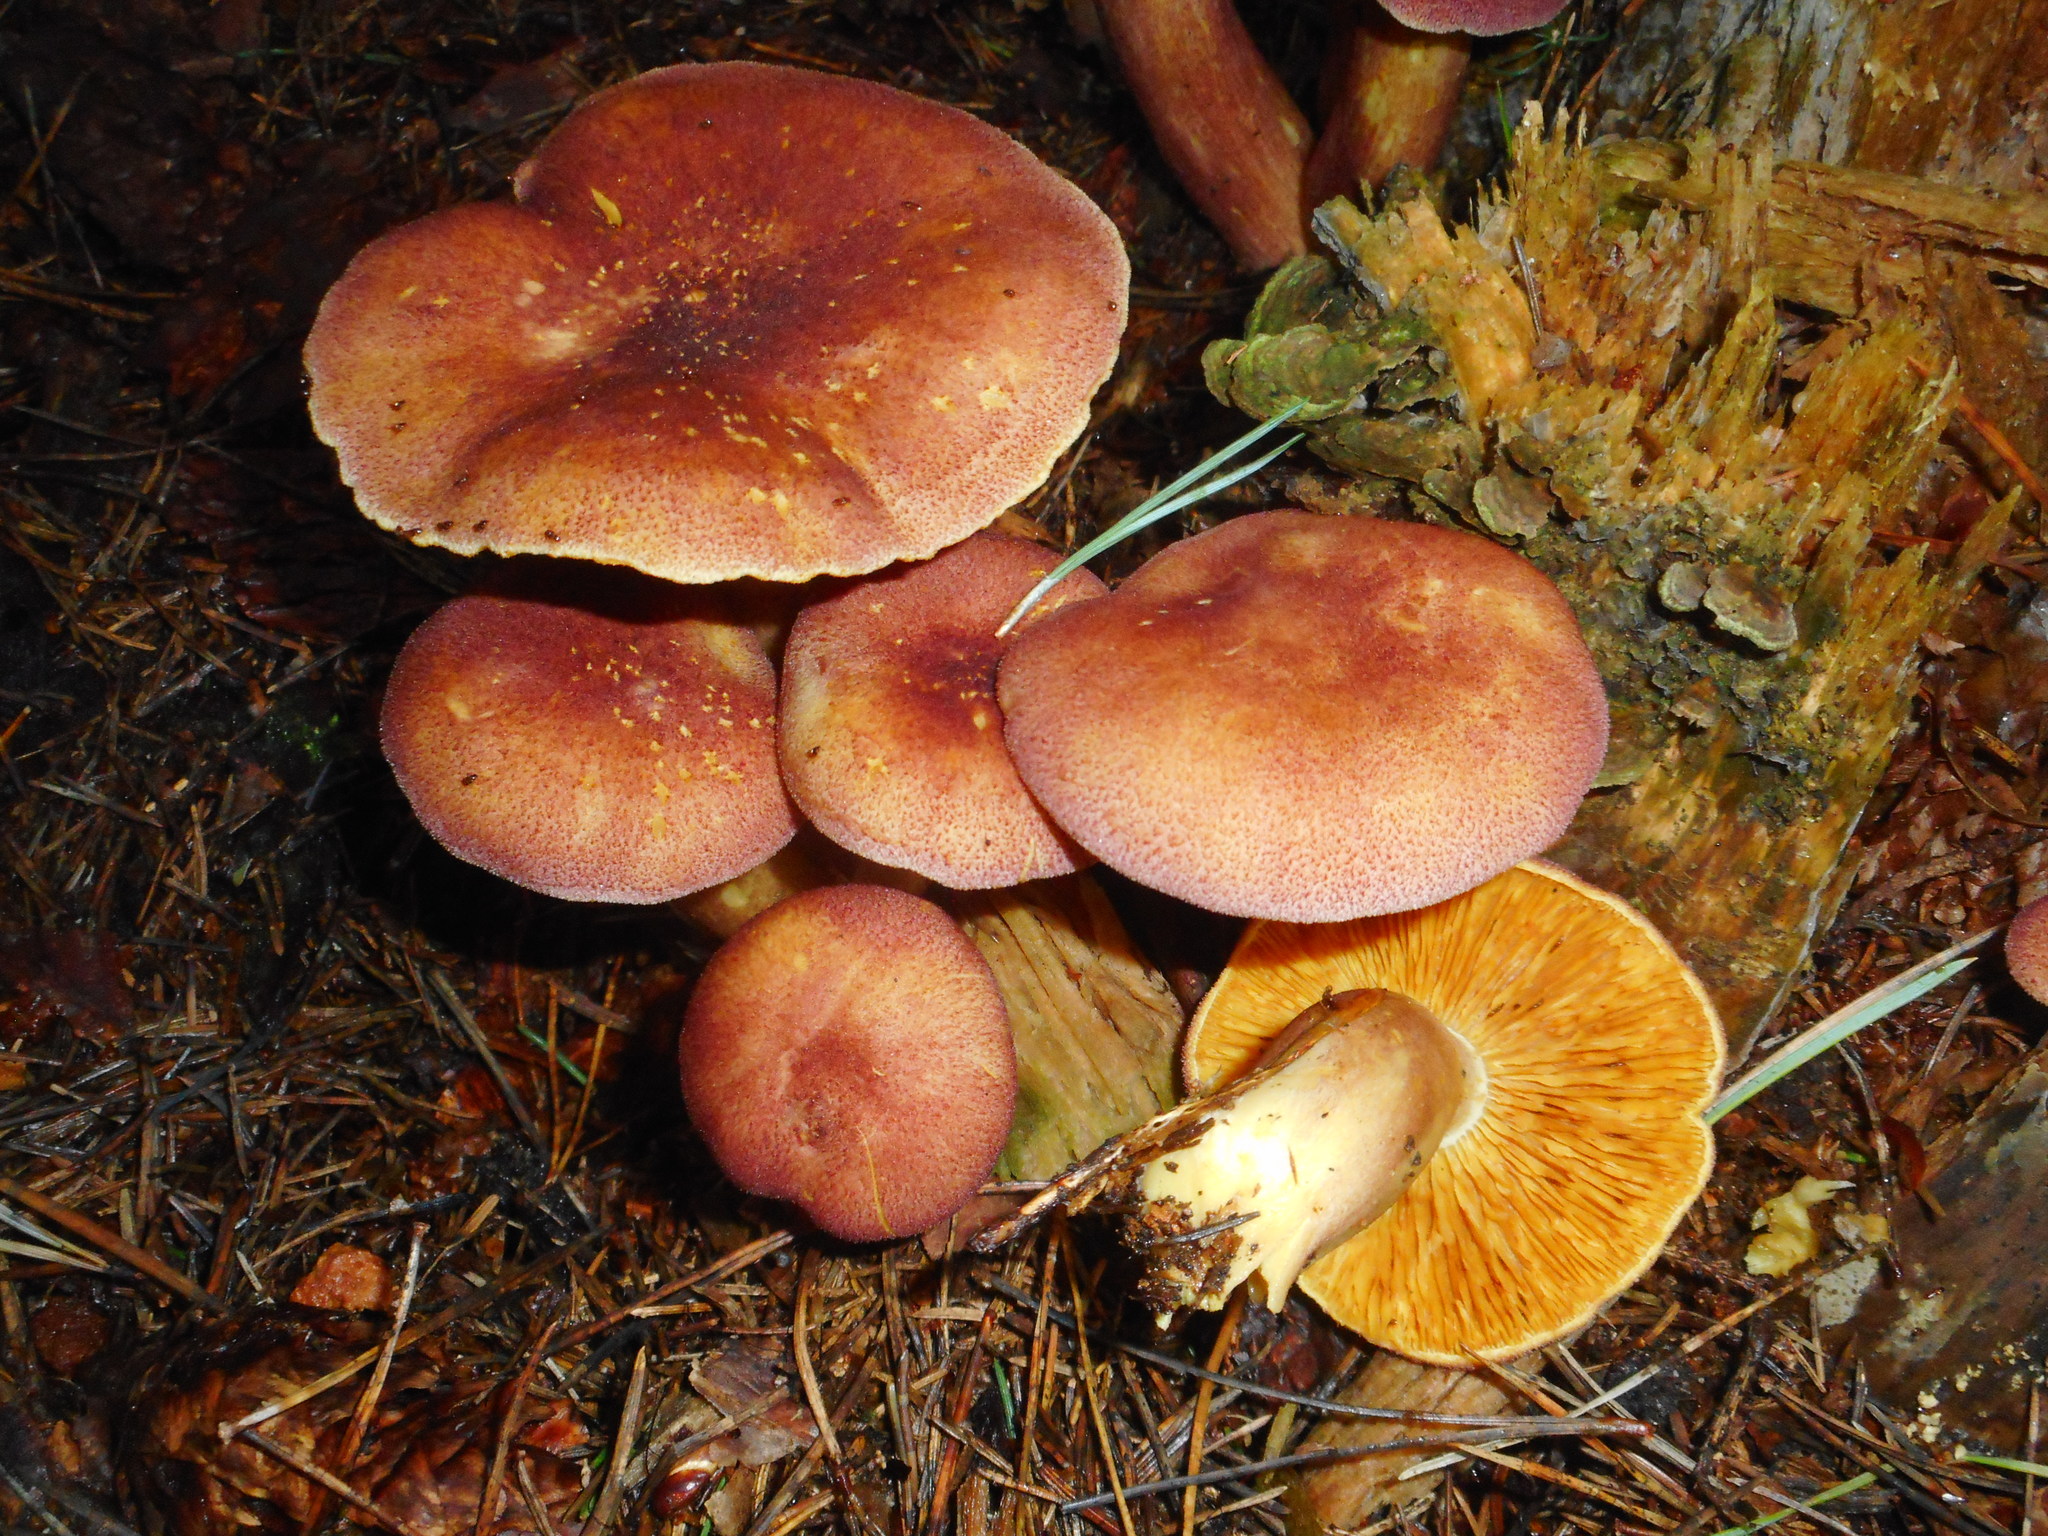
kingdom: Fungi
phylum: Basidiomycota
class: Agaricomycetes
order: Agaricales
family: Tricholomataceae
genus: Tricholomopsis
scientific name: Tricholomopsis rutilans
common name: Plums and custard
